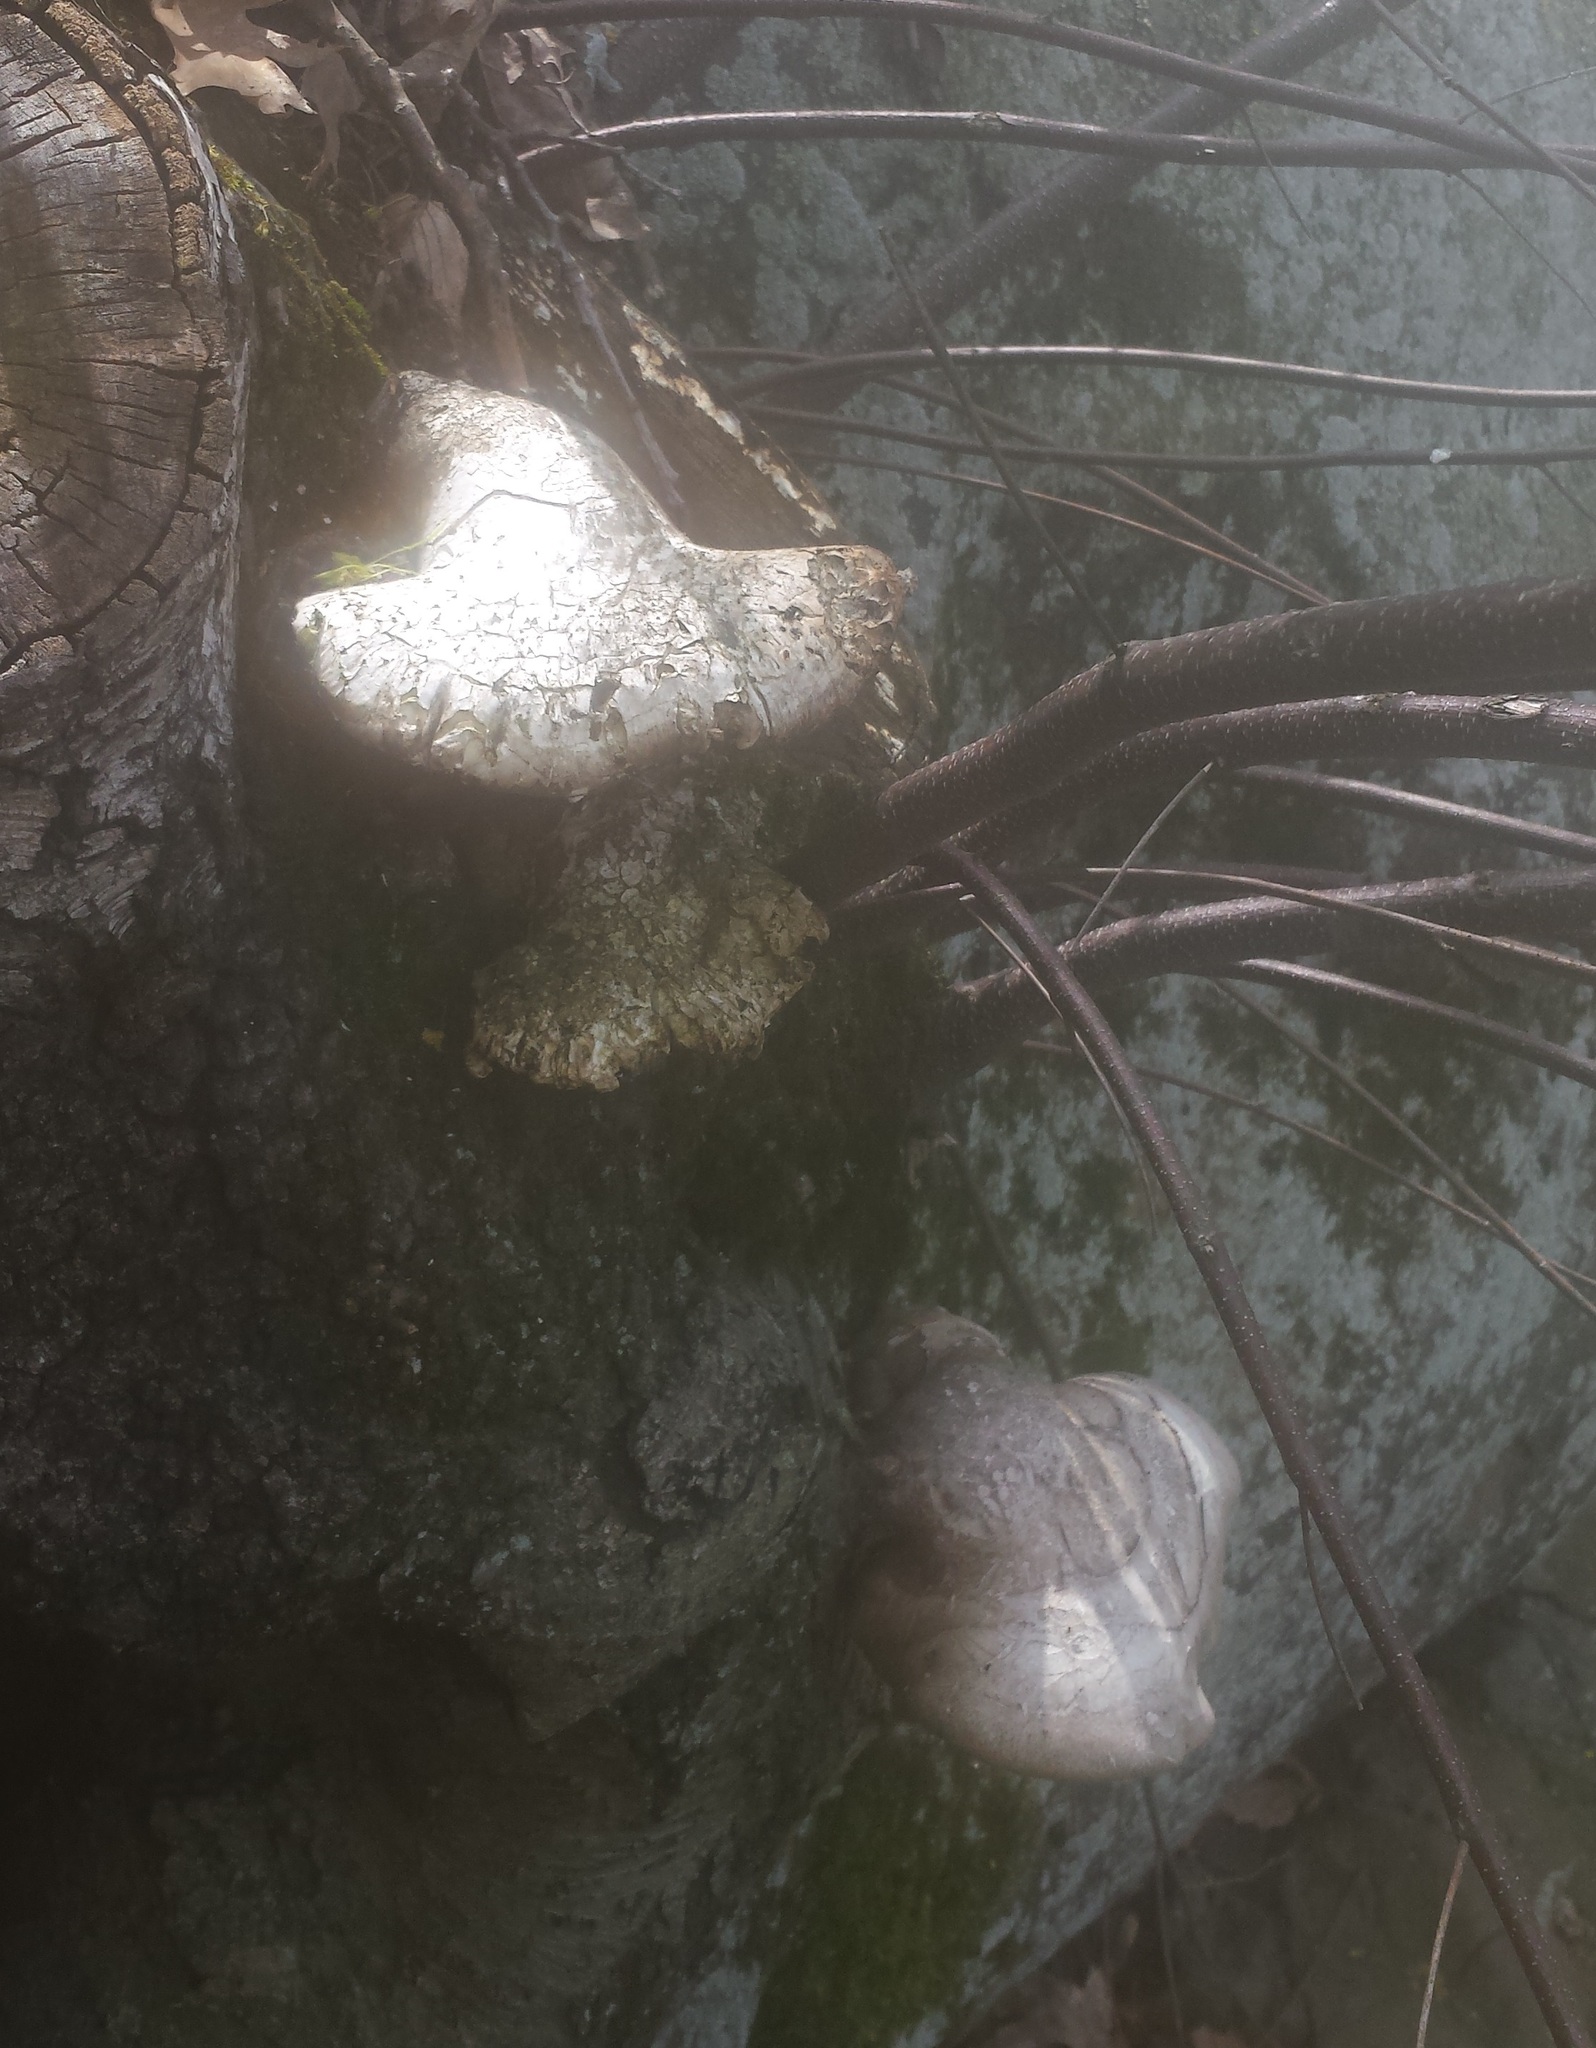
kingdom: Fungi
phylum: Basidiomycota
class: Agaricomycetes
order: Polyporales
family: Fomitopsidaceae
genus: Fomitopsis
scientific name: Fomitopsis betulina
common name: Birch polypore
